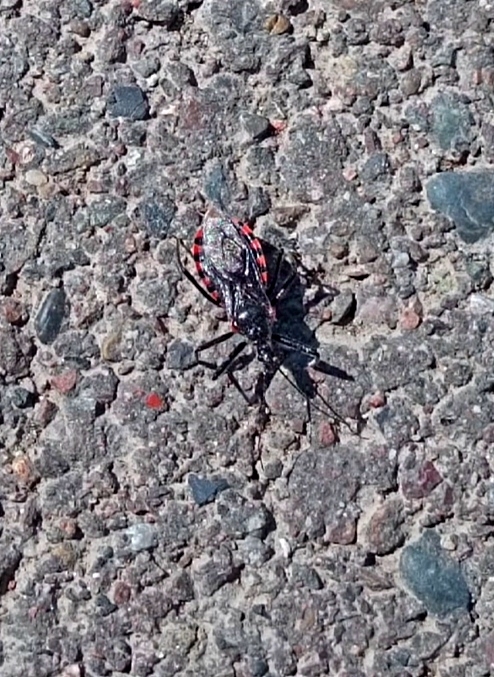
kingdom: Animalia
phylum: Arthropoda
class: Insecta
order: Hemiptera
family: Reduviidae
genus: Rhynocoris
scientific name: Rhynocoris leucospilus
